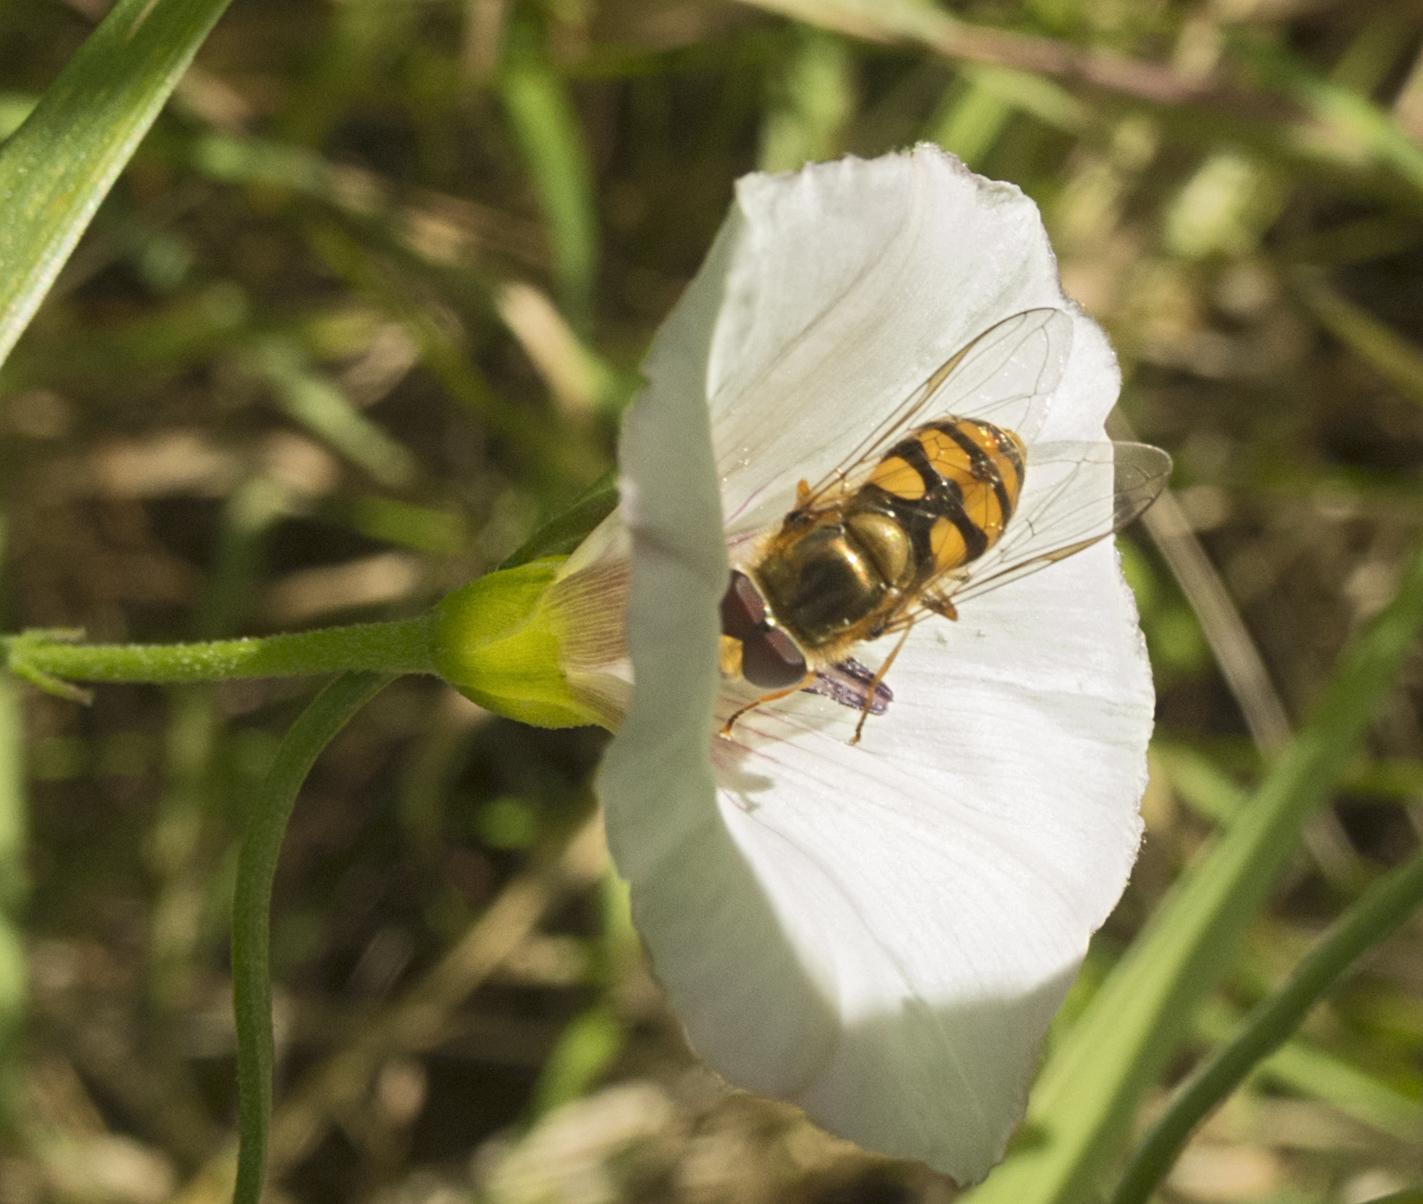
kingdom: Animalia
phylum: Arthropoda
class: Insecta
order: Diptera
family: Syrphidae
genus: Eupeodes
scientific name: Eupeodes corollae
